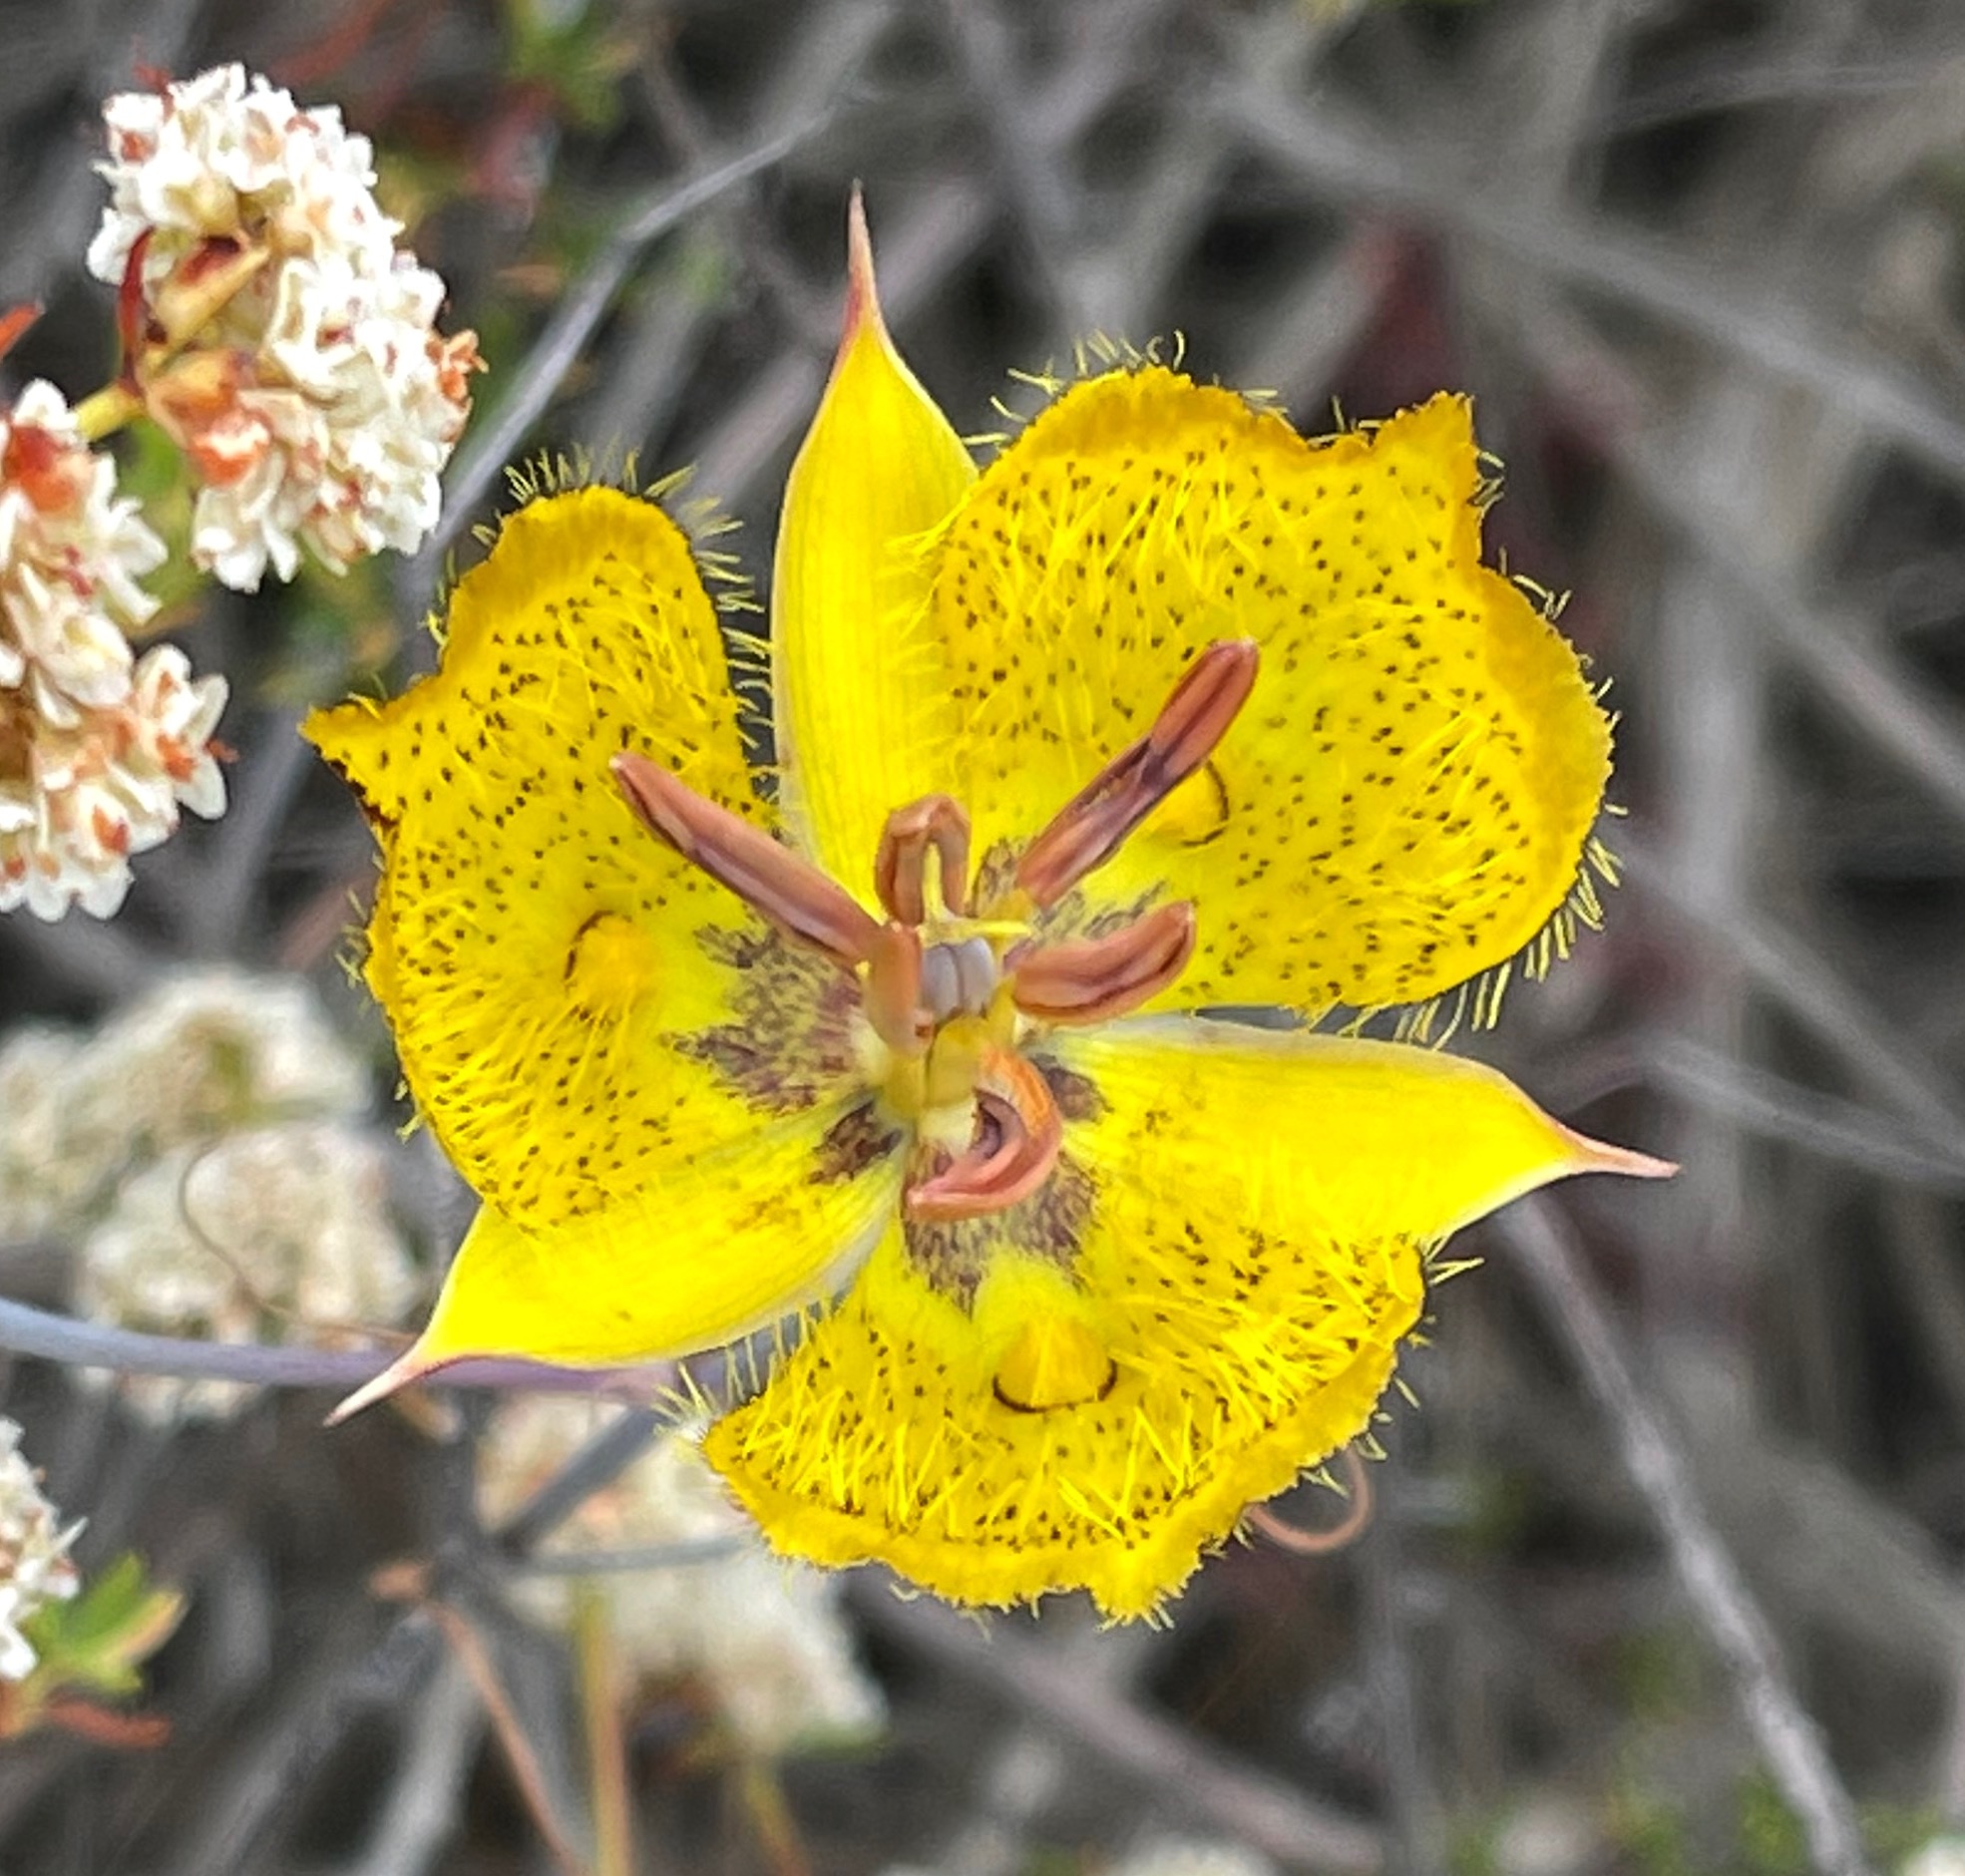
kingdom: Plantae
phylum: Tracheophyta
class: Liliopsida
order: Liliales
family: Liliaceae
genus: Calochortus
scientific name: Calochortus weedii
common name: Weed's mariposa-lily
